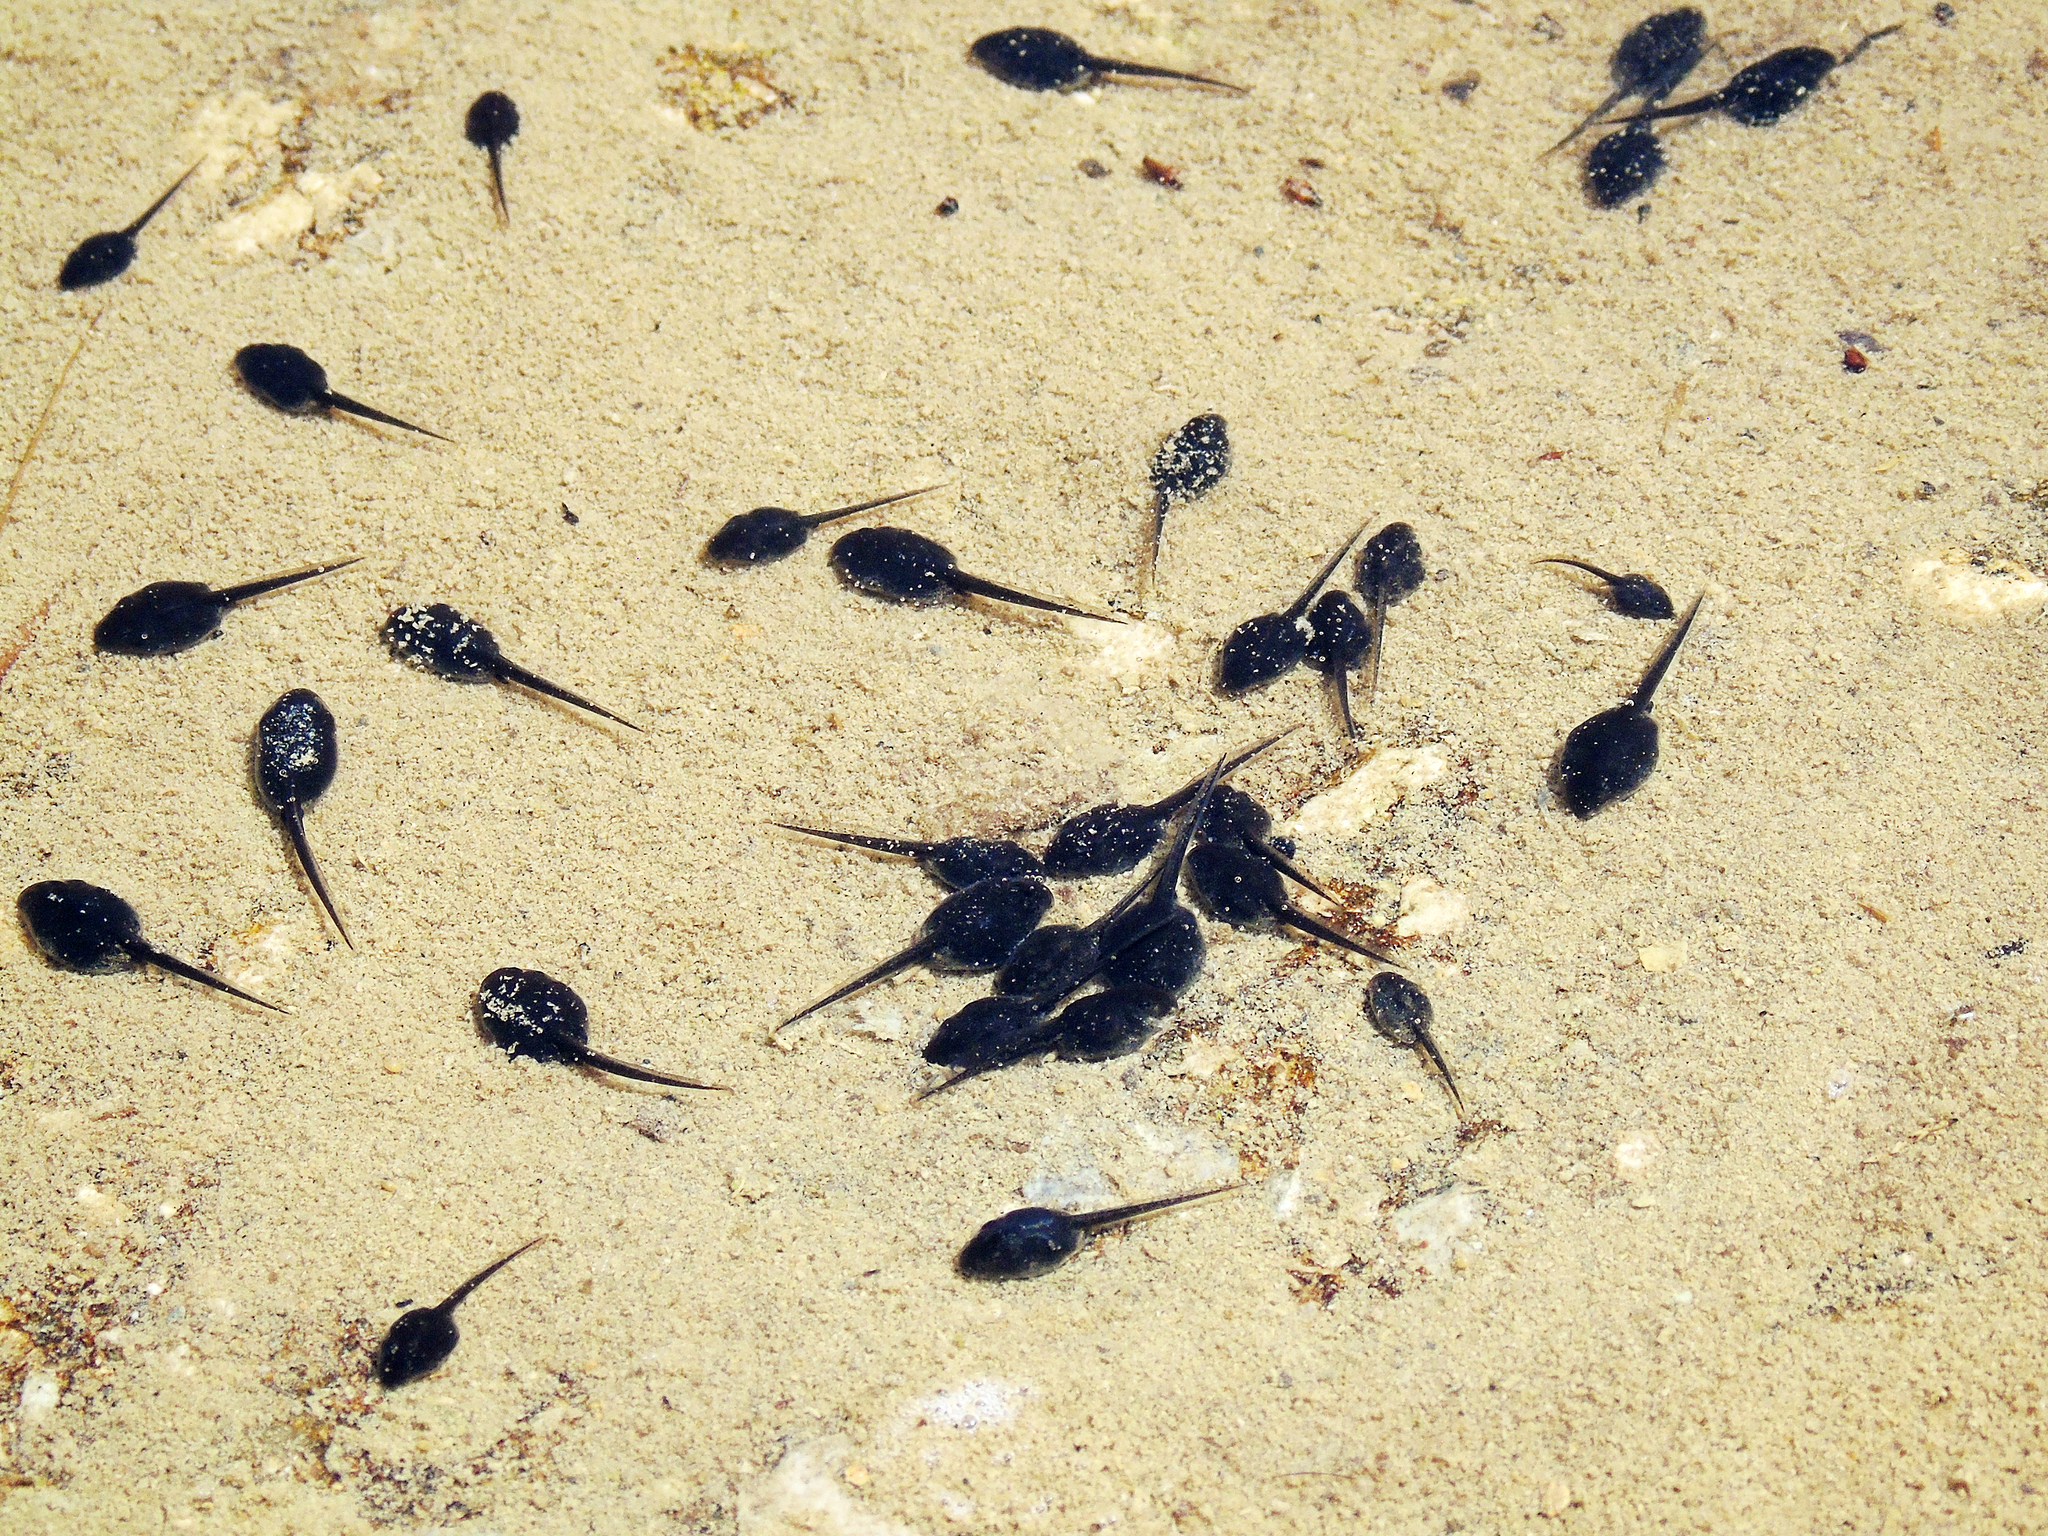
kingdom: Animalia
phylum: Chordata
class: Amphibia
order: Anura
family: Bufonidae
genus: Bufotes
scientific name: Bufotes viridis
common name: European green toad
